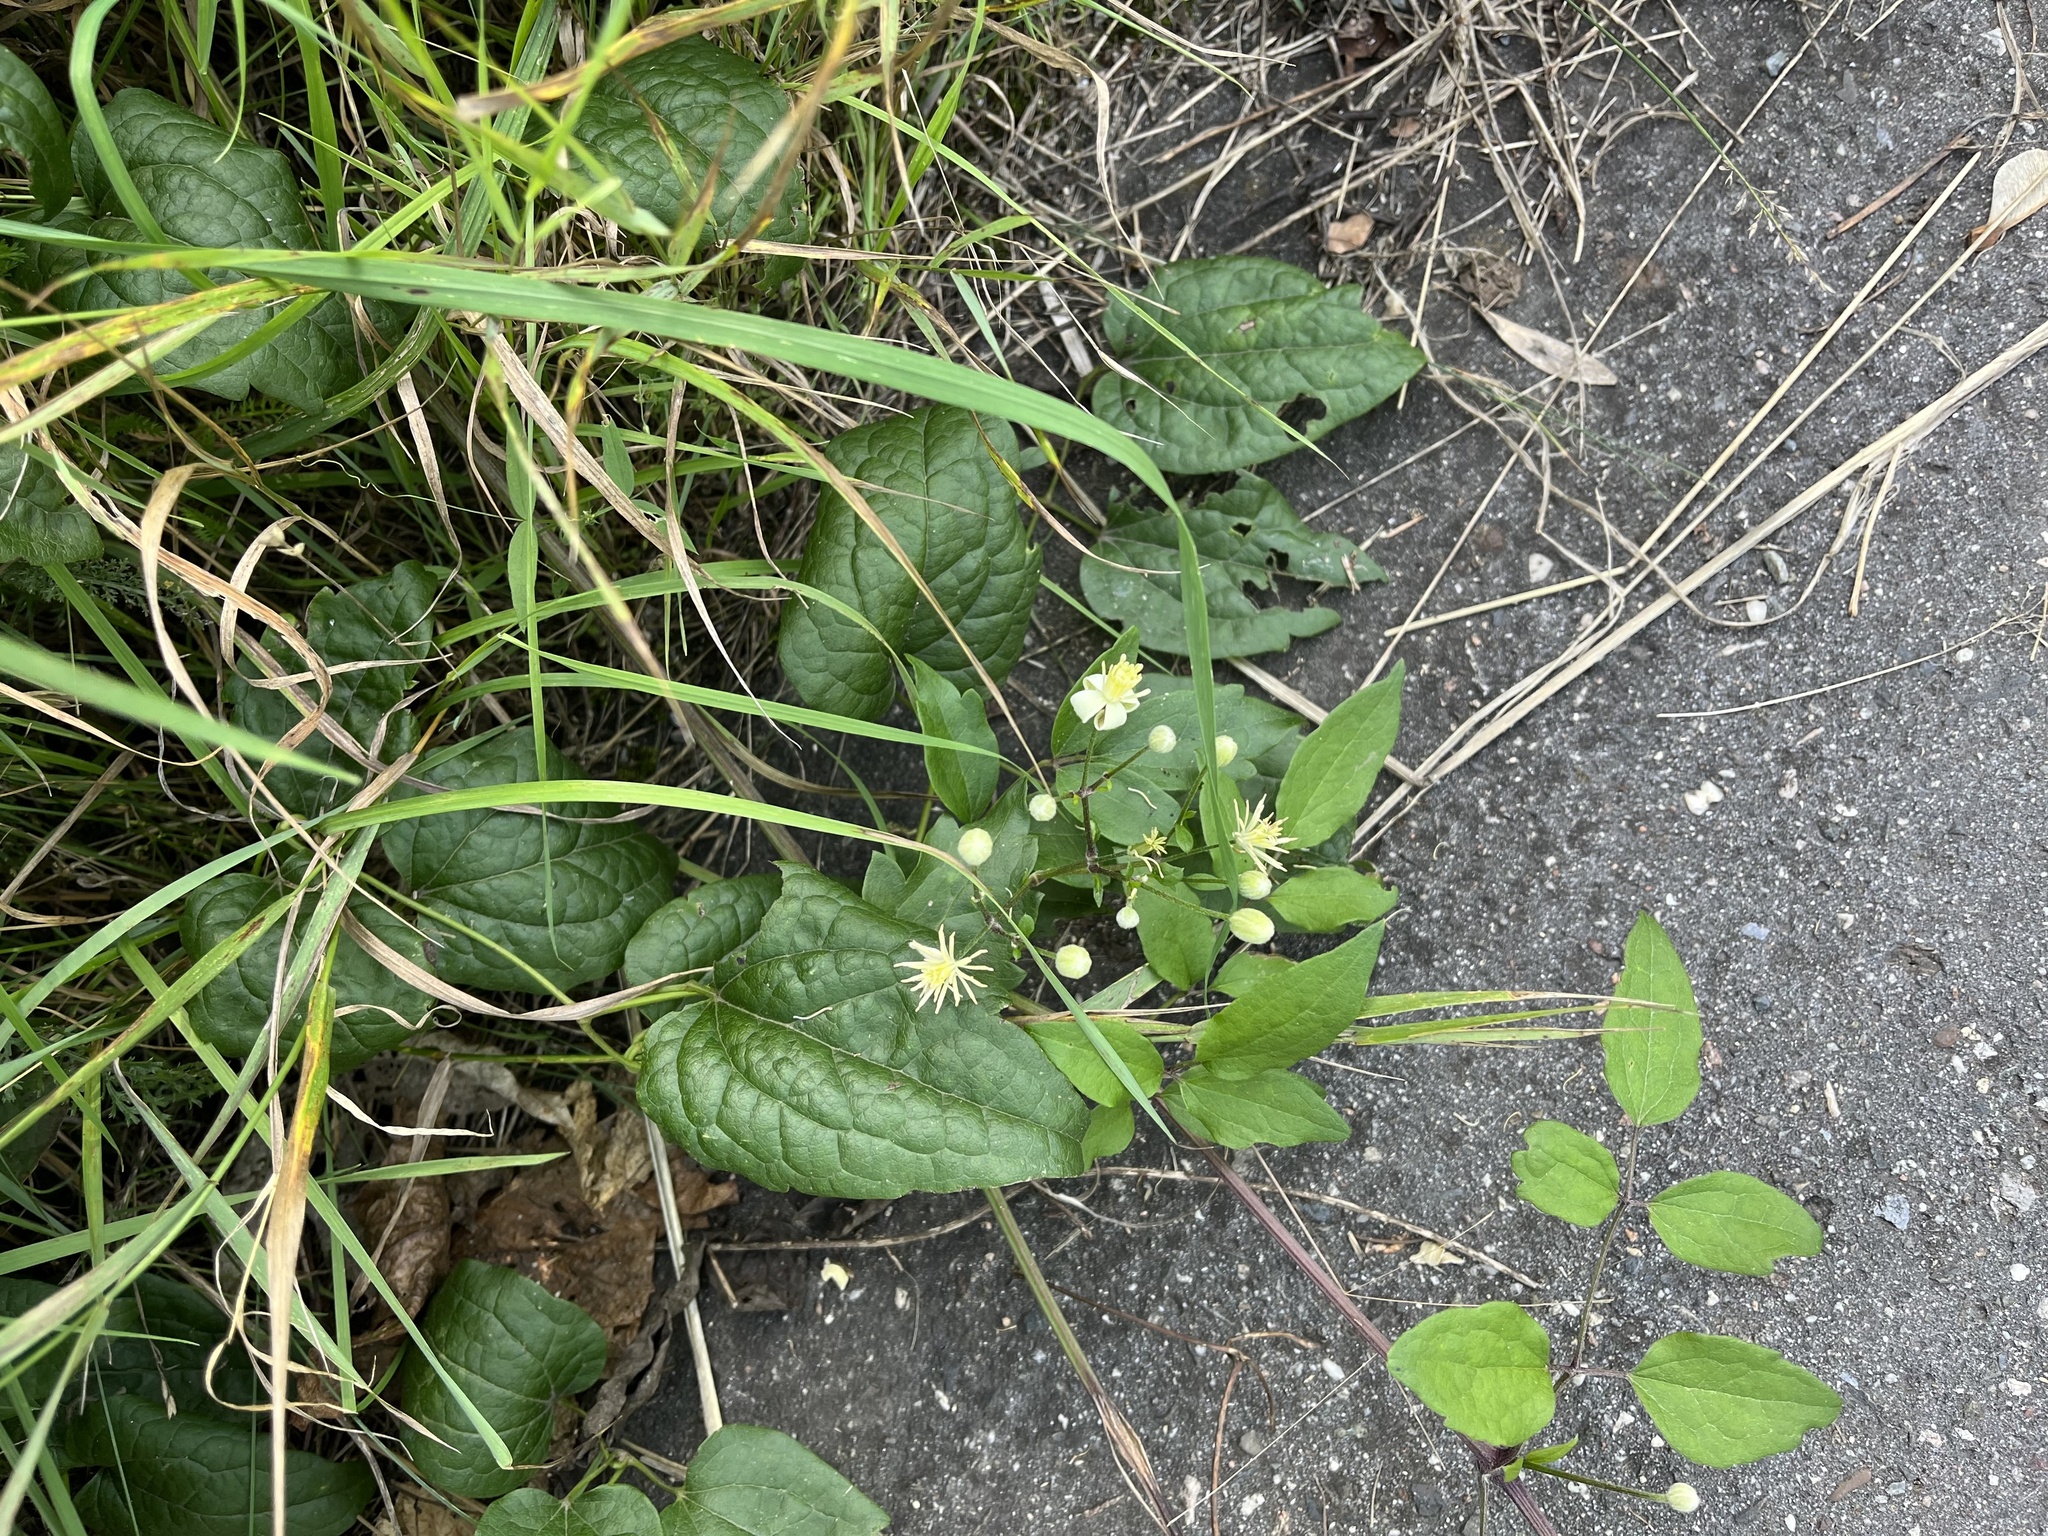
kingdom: Plantae
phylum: Tracheophyta
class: Magnoliopsida
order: Ranunculales
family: Ranunculaceae
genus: Clematis
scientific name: Clematis vitalba
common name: Evergreen clematis
